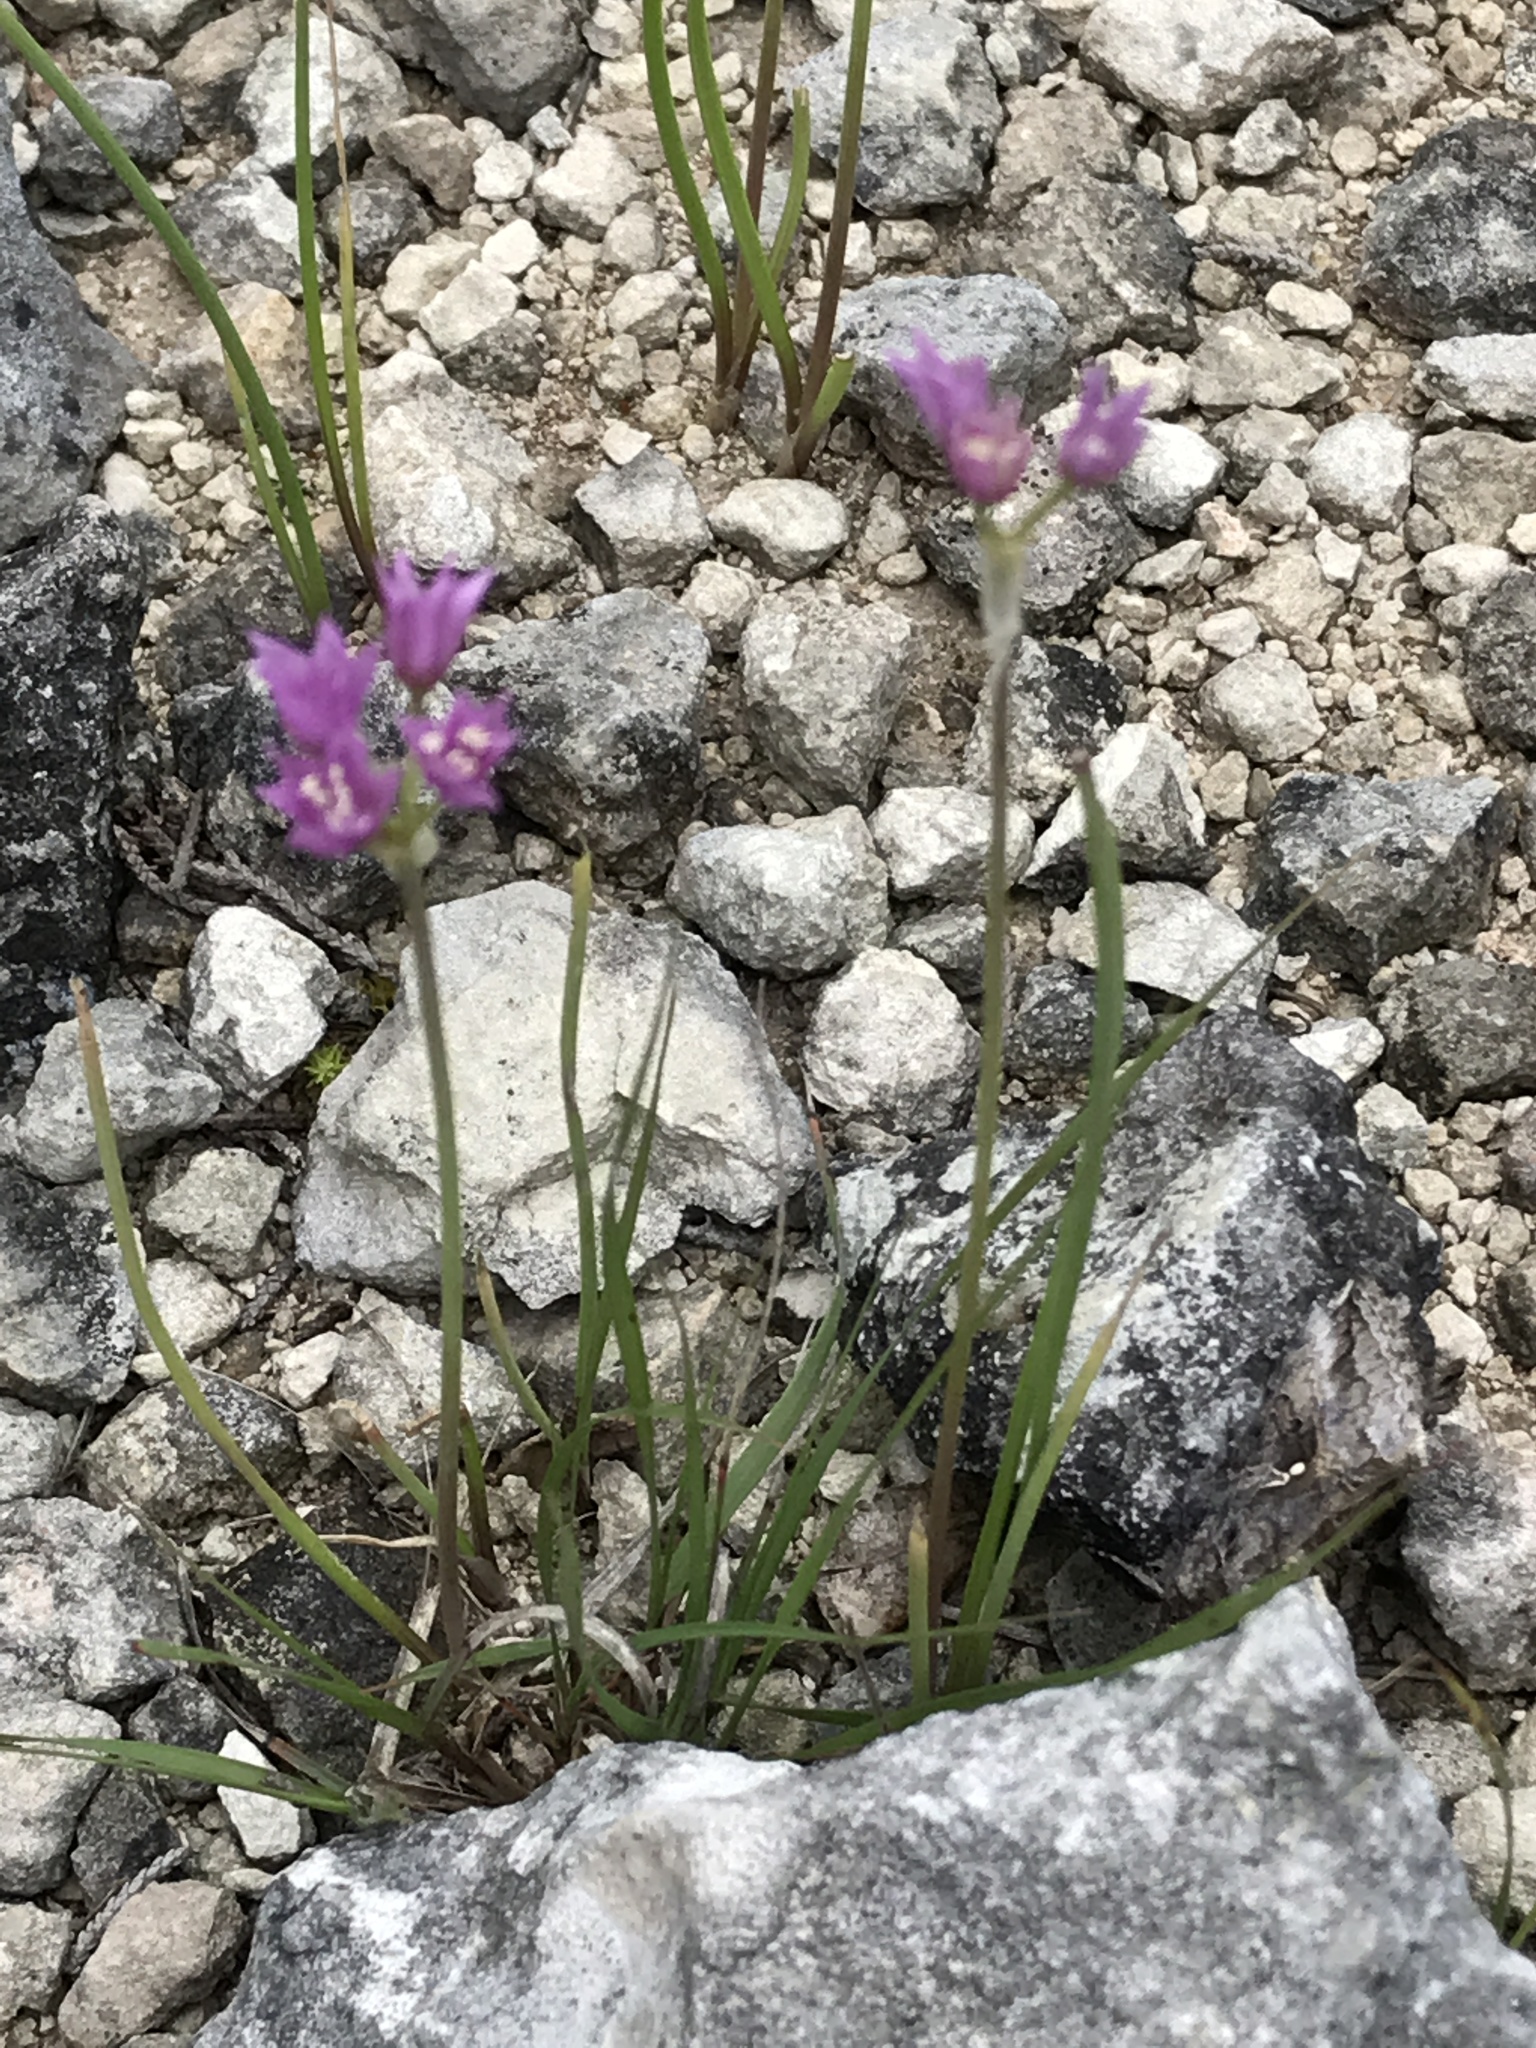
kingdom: Plantae
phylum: Tracheophyta
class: Liliopsida
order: Asparagales
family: Amaryllidaceae
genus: Allium
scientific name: Allium drummondii
